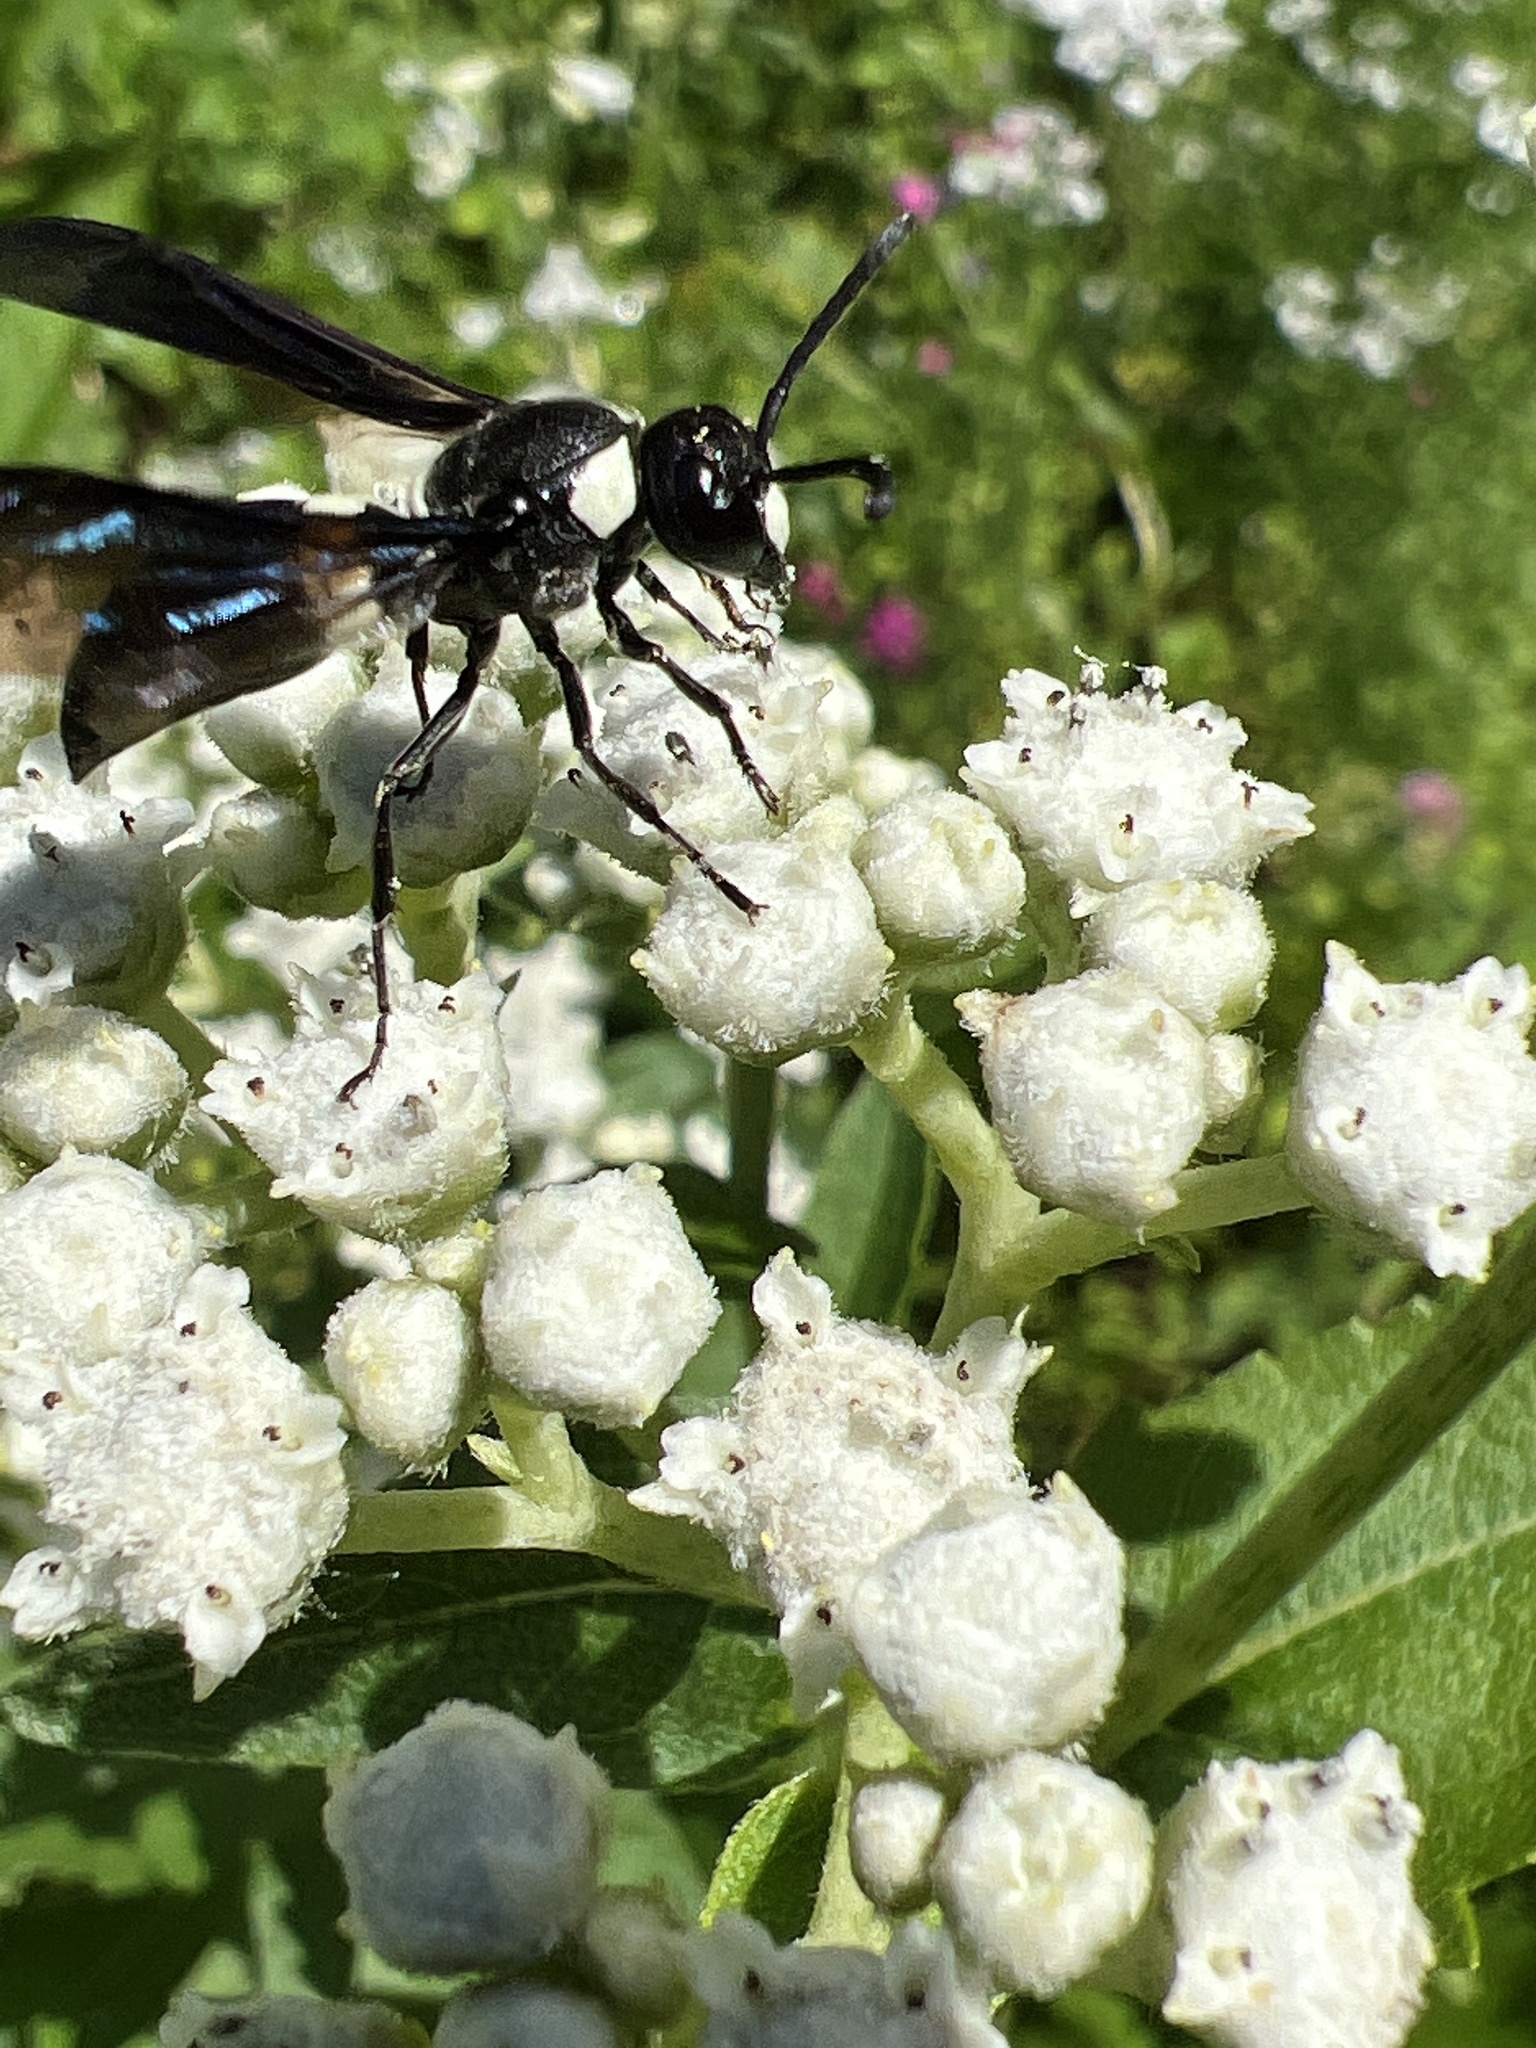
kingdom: Animalia
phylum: Arthropoda
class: Insecta
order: Hymenoptera
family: Eumenidae
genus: Monobia
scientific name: Monobia quadridens
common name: Four-toothed mason wasp
